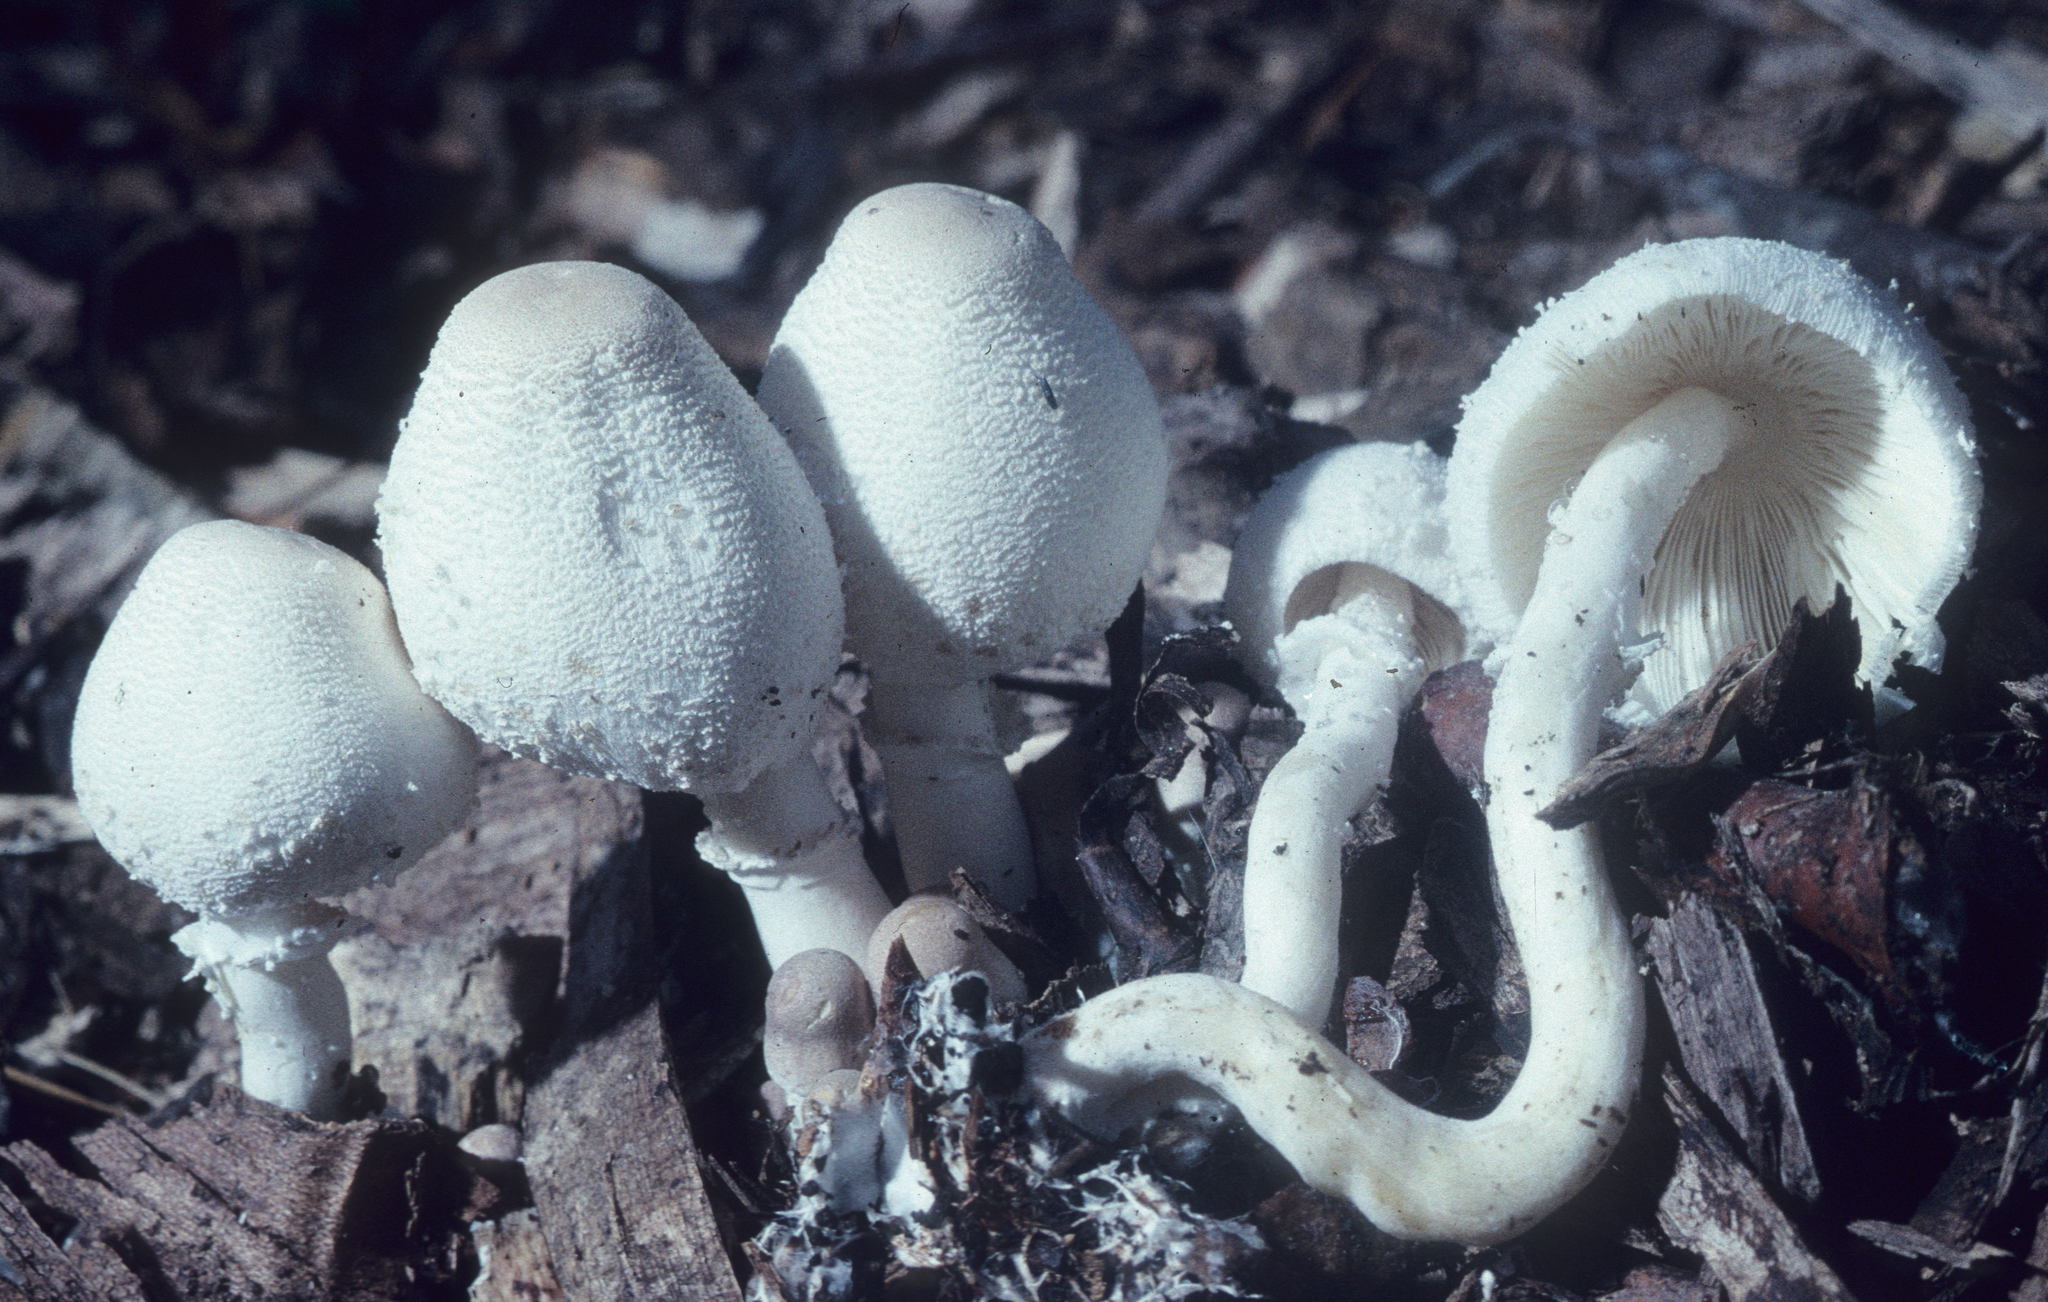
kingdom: Fungi
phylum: Basidiomycota
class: Agaricomycetes
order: Agaricales
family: Agaricaceae
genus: Leucocoprinus
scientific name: Leucocoprinus cepistipes
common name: Onion-stalk parasol
